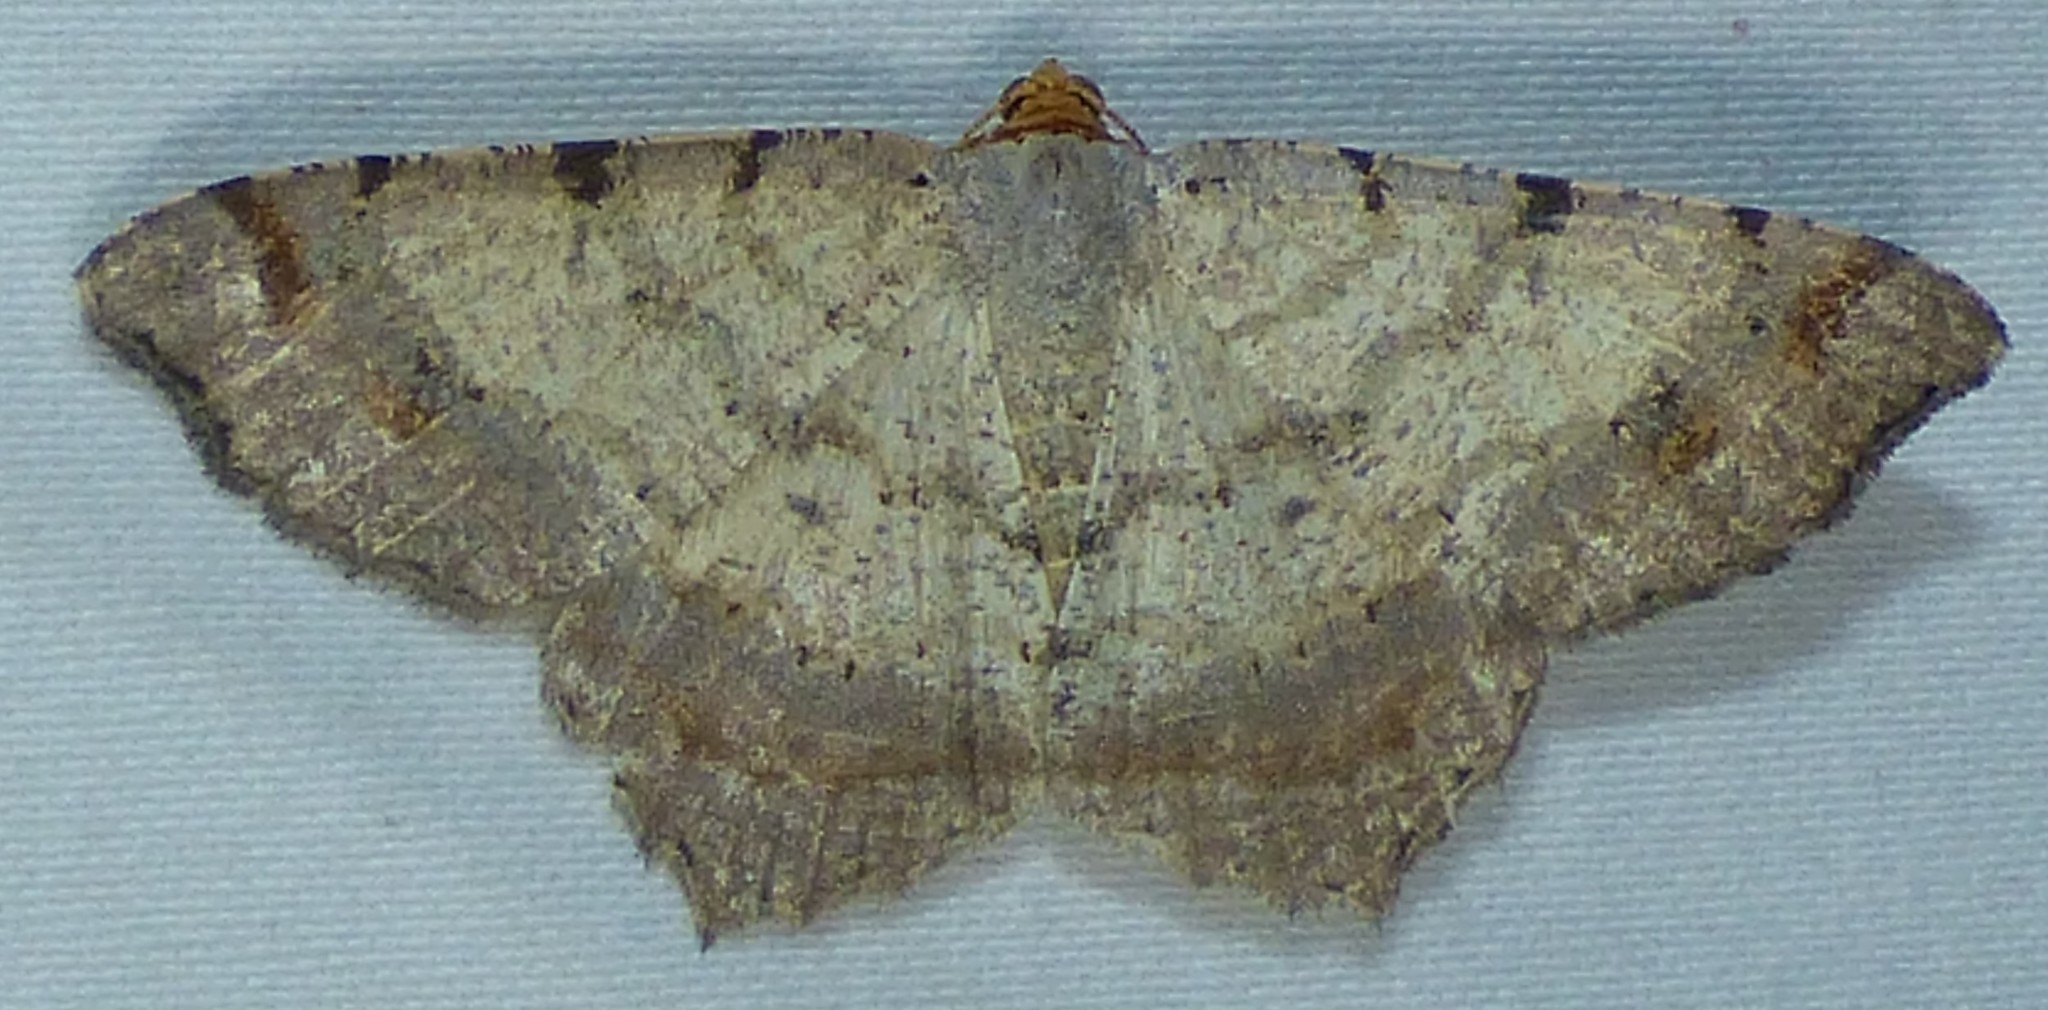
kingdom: Animalia
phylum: Arthropoda
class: Insecta
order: Lepidoptera
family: Geometridae
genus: Macaria
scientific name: Macaria bicolorata
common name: Dingy angle
